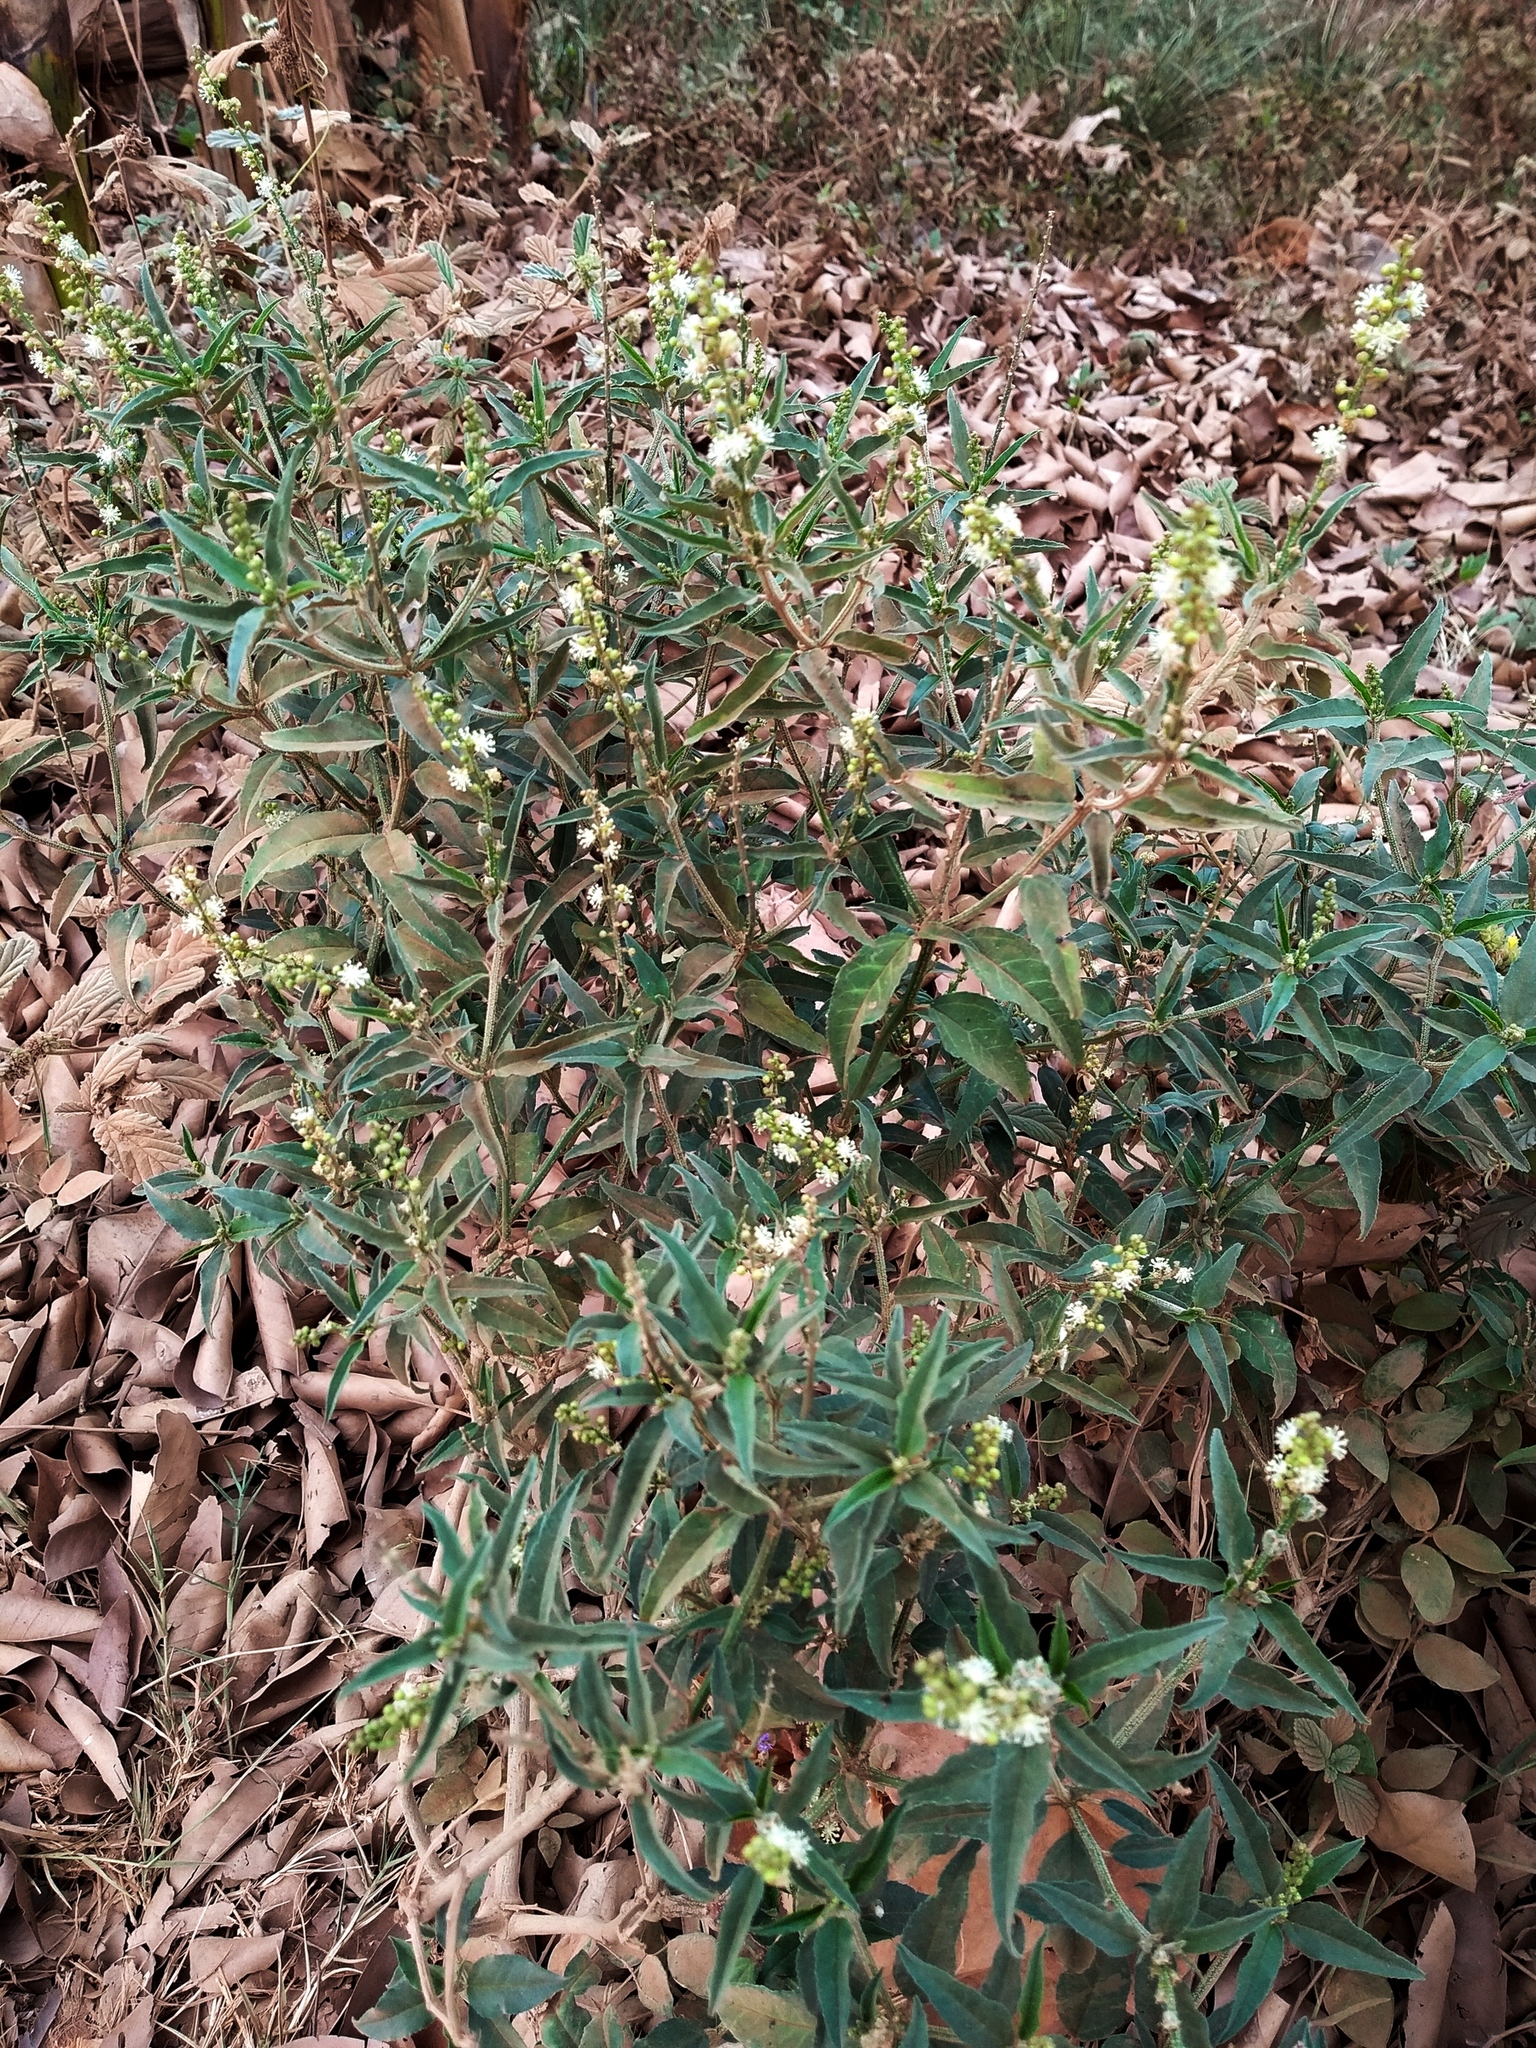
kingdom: Plantae
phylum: Tracheophyta
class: Magnoliopsida
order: Malpighiales
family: Euphorbiaceae
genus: Croton
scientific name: Croton bonplandianus
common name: Bonpland's croton
